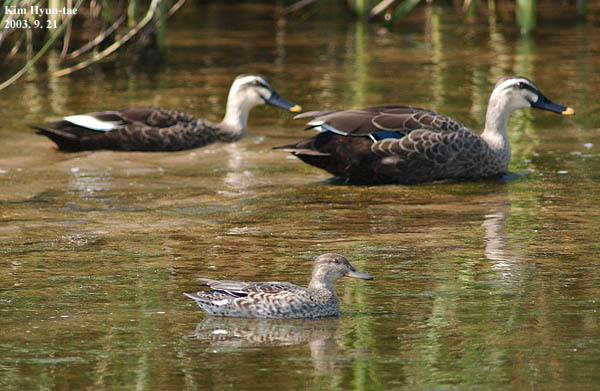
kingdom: Animalia
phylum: Chordata
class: Aves
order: Anseriformes
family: Anatidae
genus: Anas
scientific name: Anas zonorhyncha
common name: Eastern spot-billed duck
